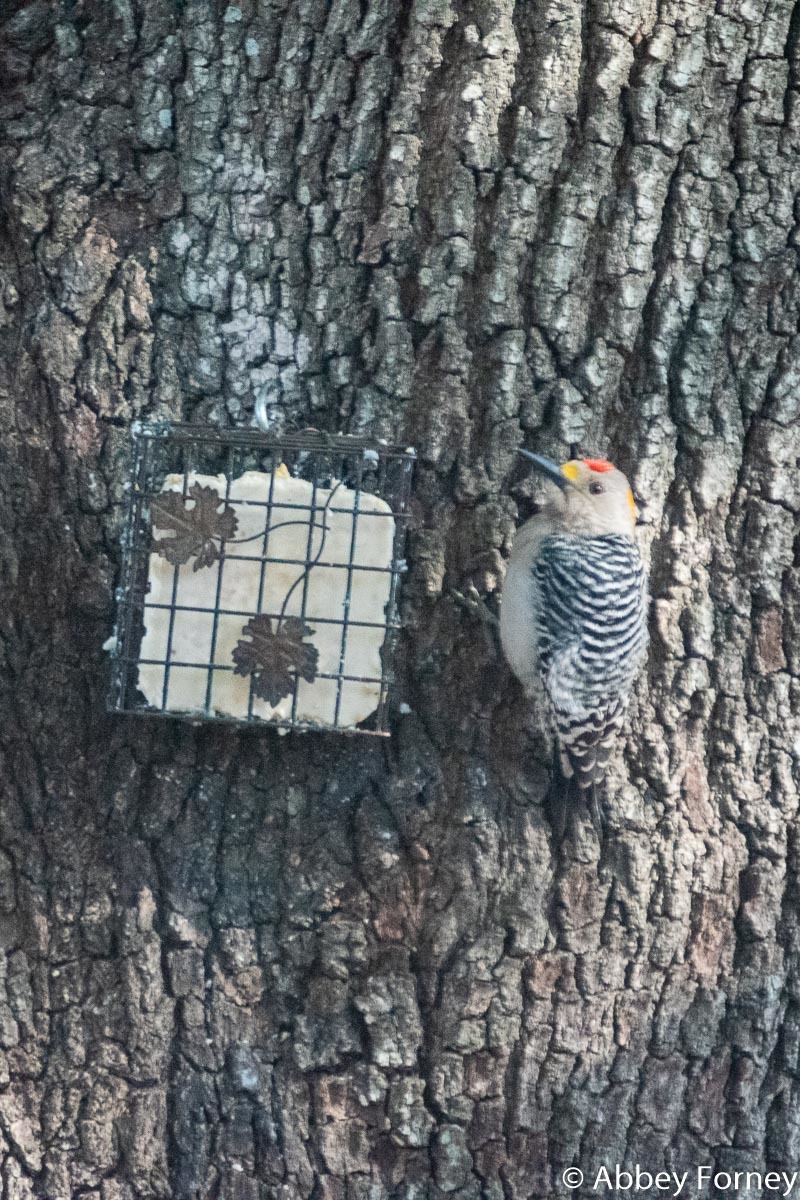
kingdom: Animalia
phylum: Chordata
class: Aves
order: Piciformes
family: Picidae
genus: Melanerpes
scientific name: Melanerpes aurifrons
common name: Golden-fronted woodpecker
